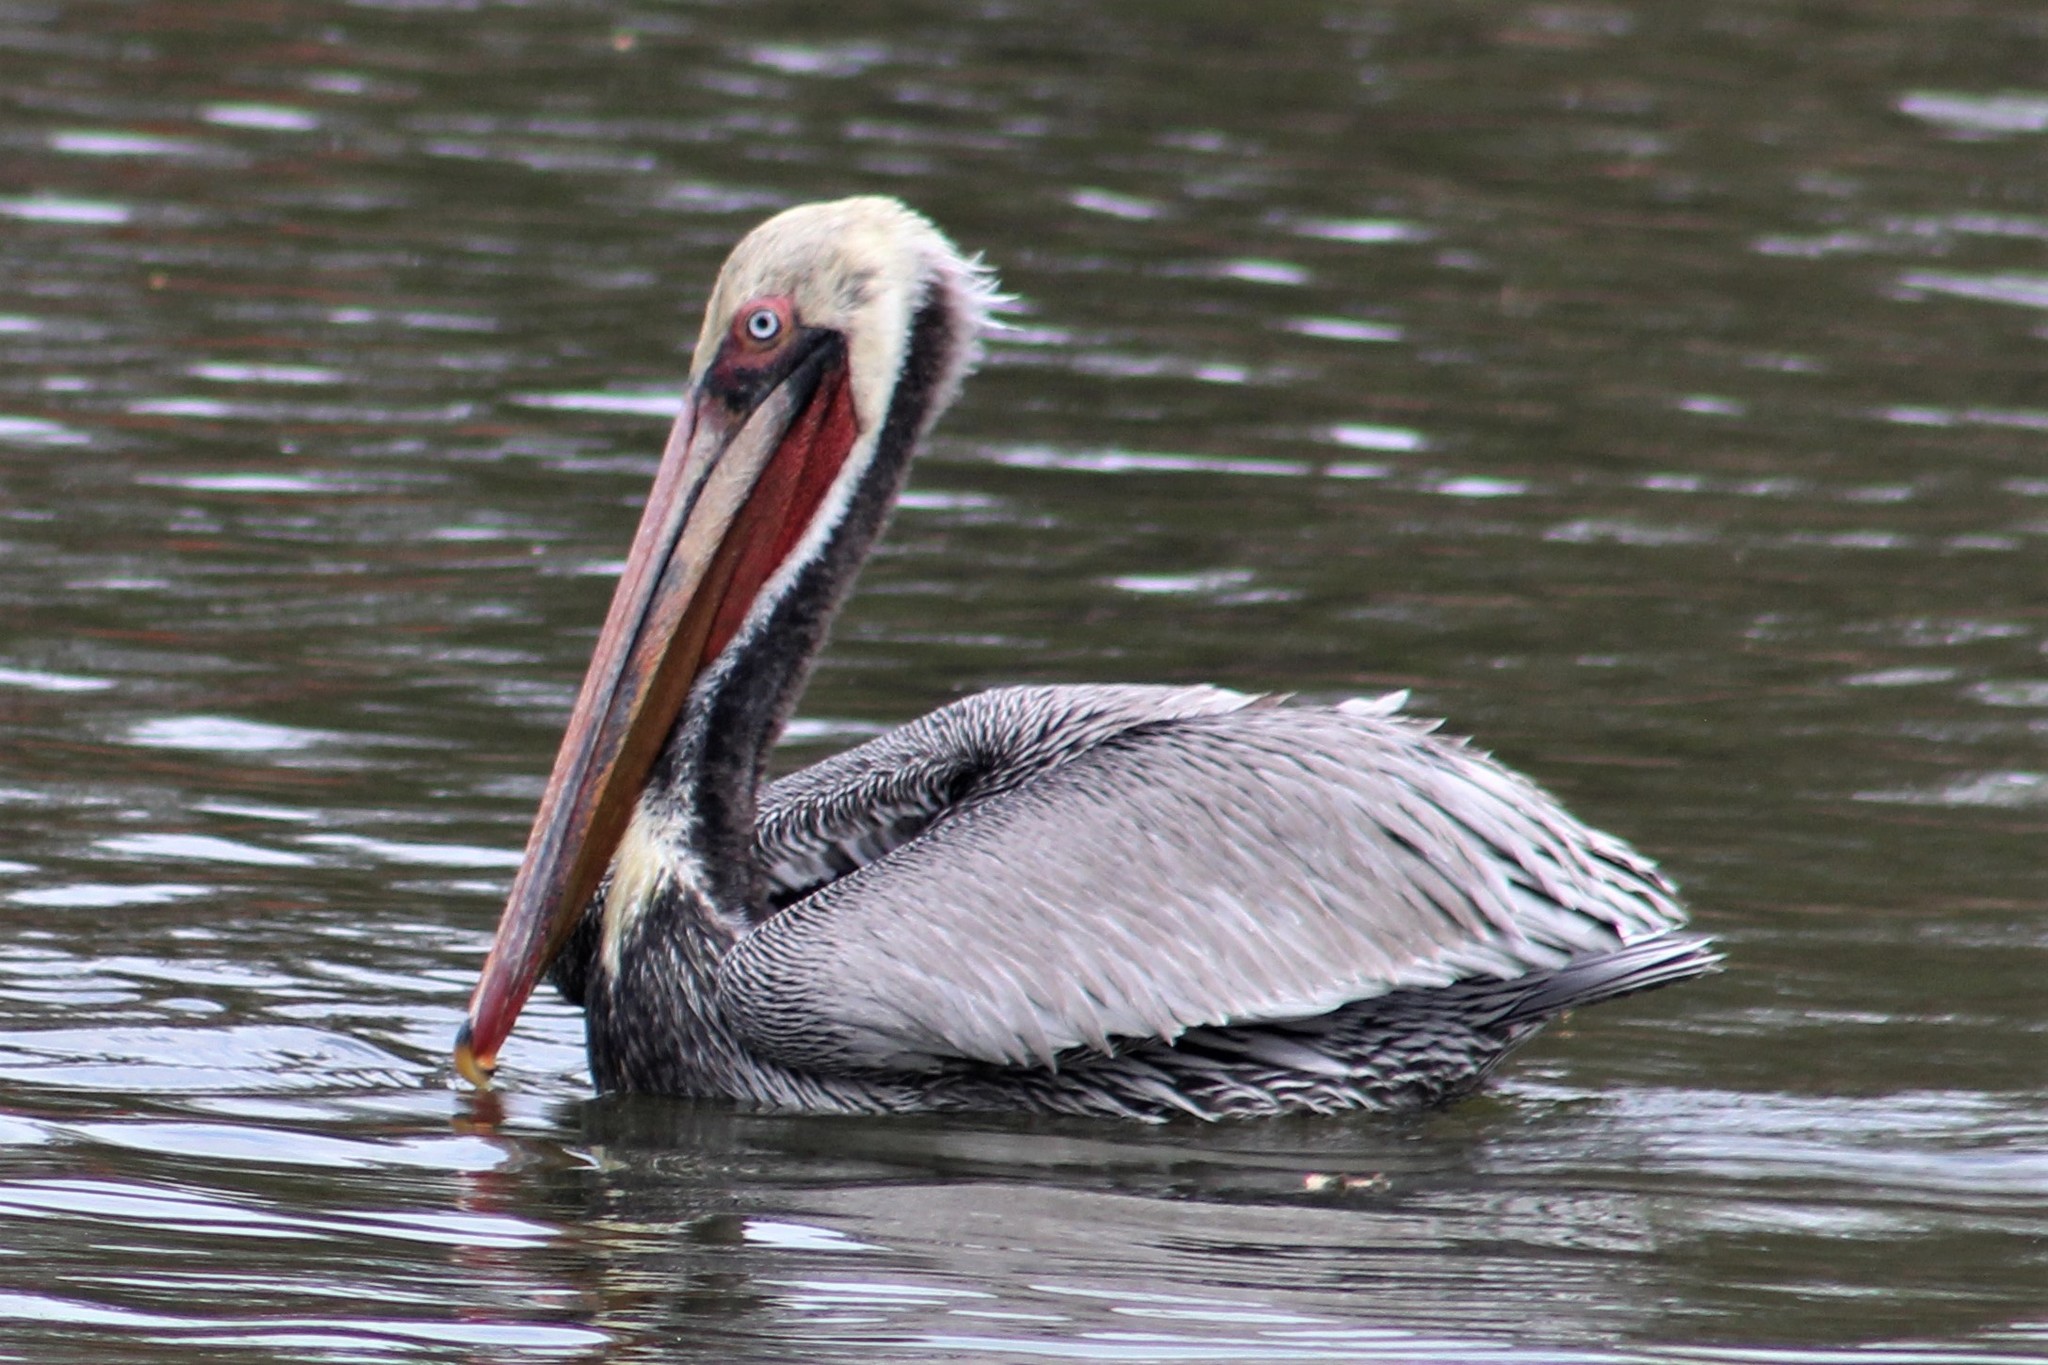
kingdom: Animalia
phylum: Chordata
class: Aves
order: Pelecaniformes
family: Pelecanidae
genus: Pelecanus
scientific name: Pelecanus occidentalis
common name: Brown pelican
